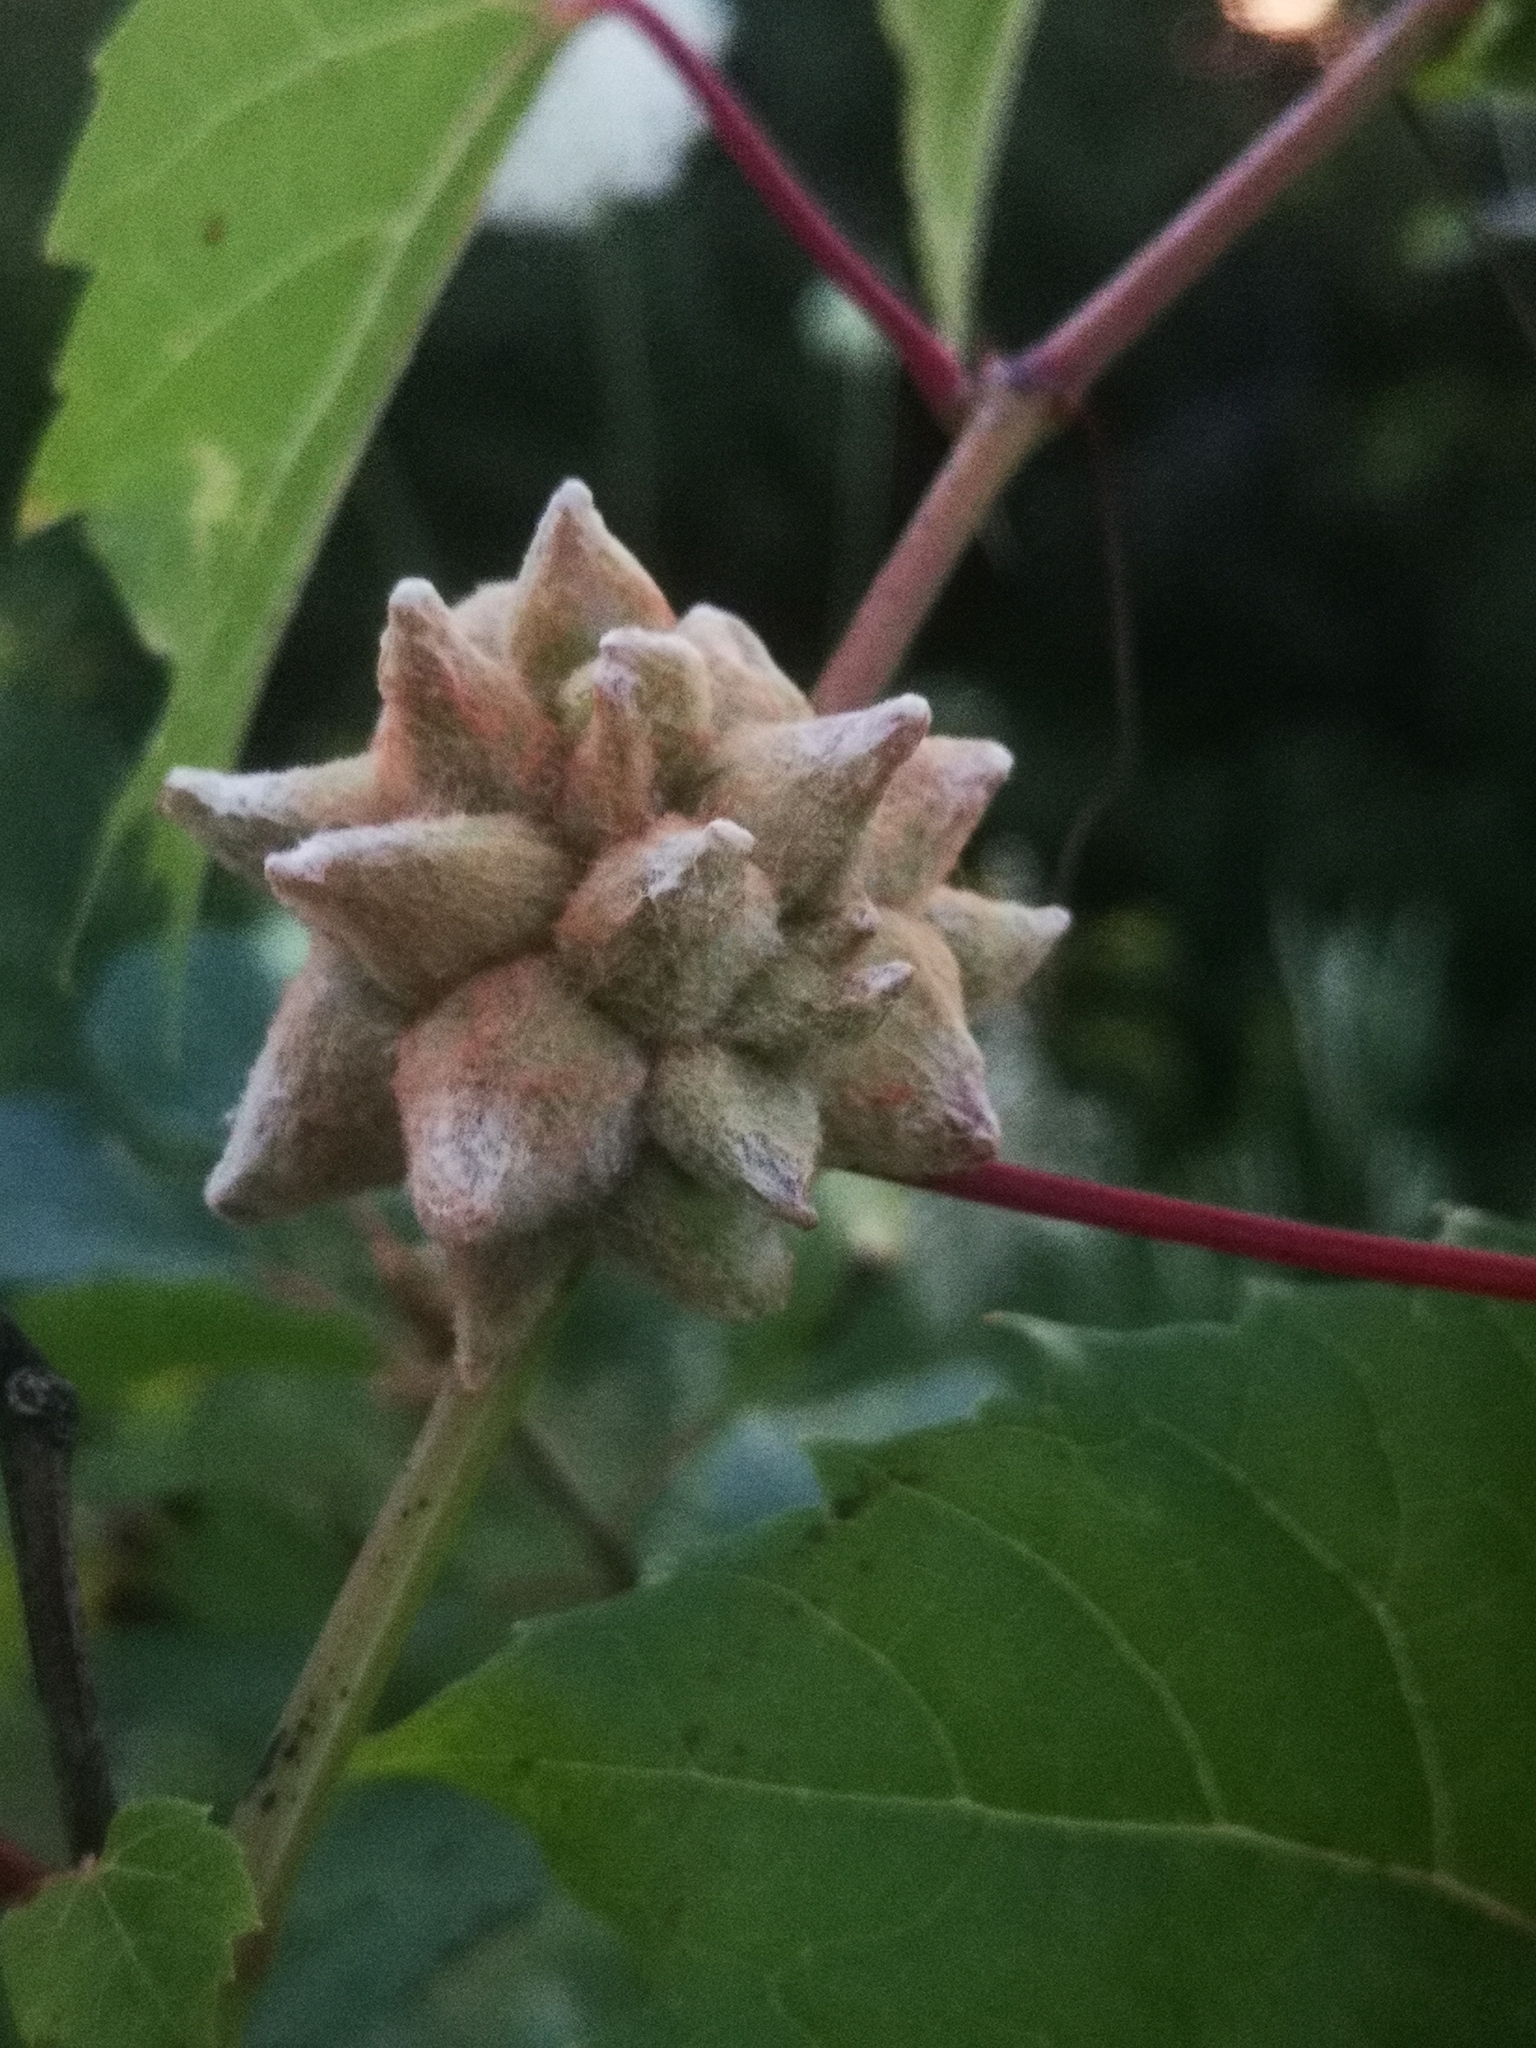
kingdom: Animalia
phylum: Arthropoda
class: Insecta
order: Diptera
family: Cecidomyiidae
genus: Ampelomyia
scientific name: Ampelomyia vitiscoryloides
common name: Grape filbert gall
